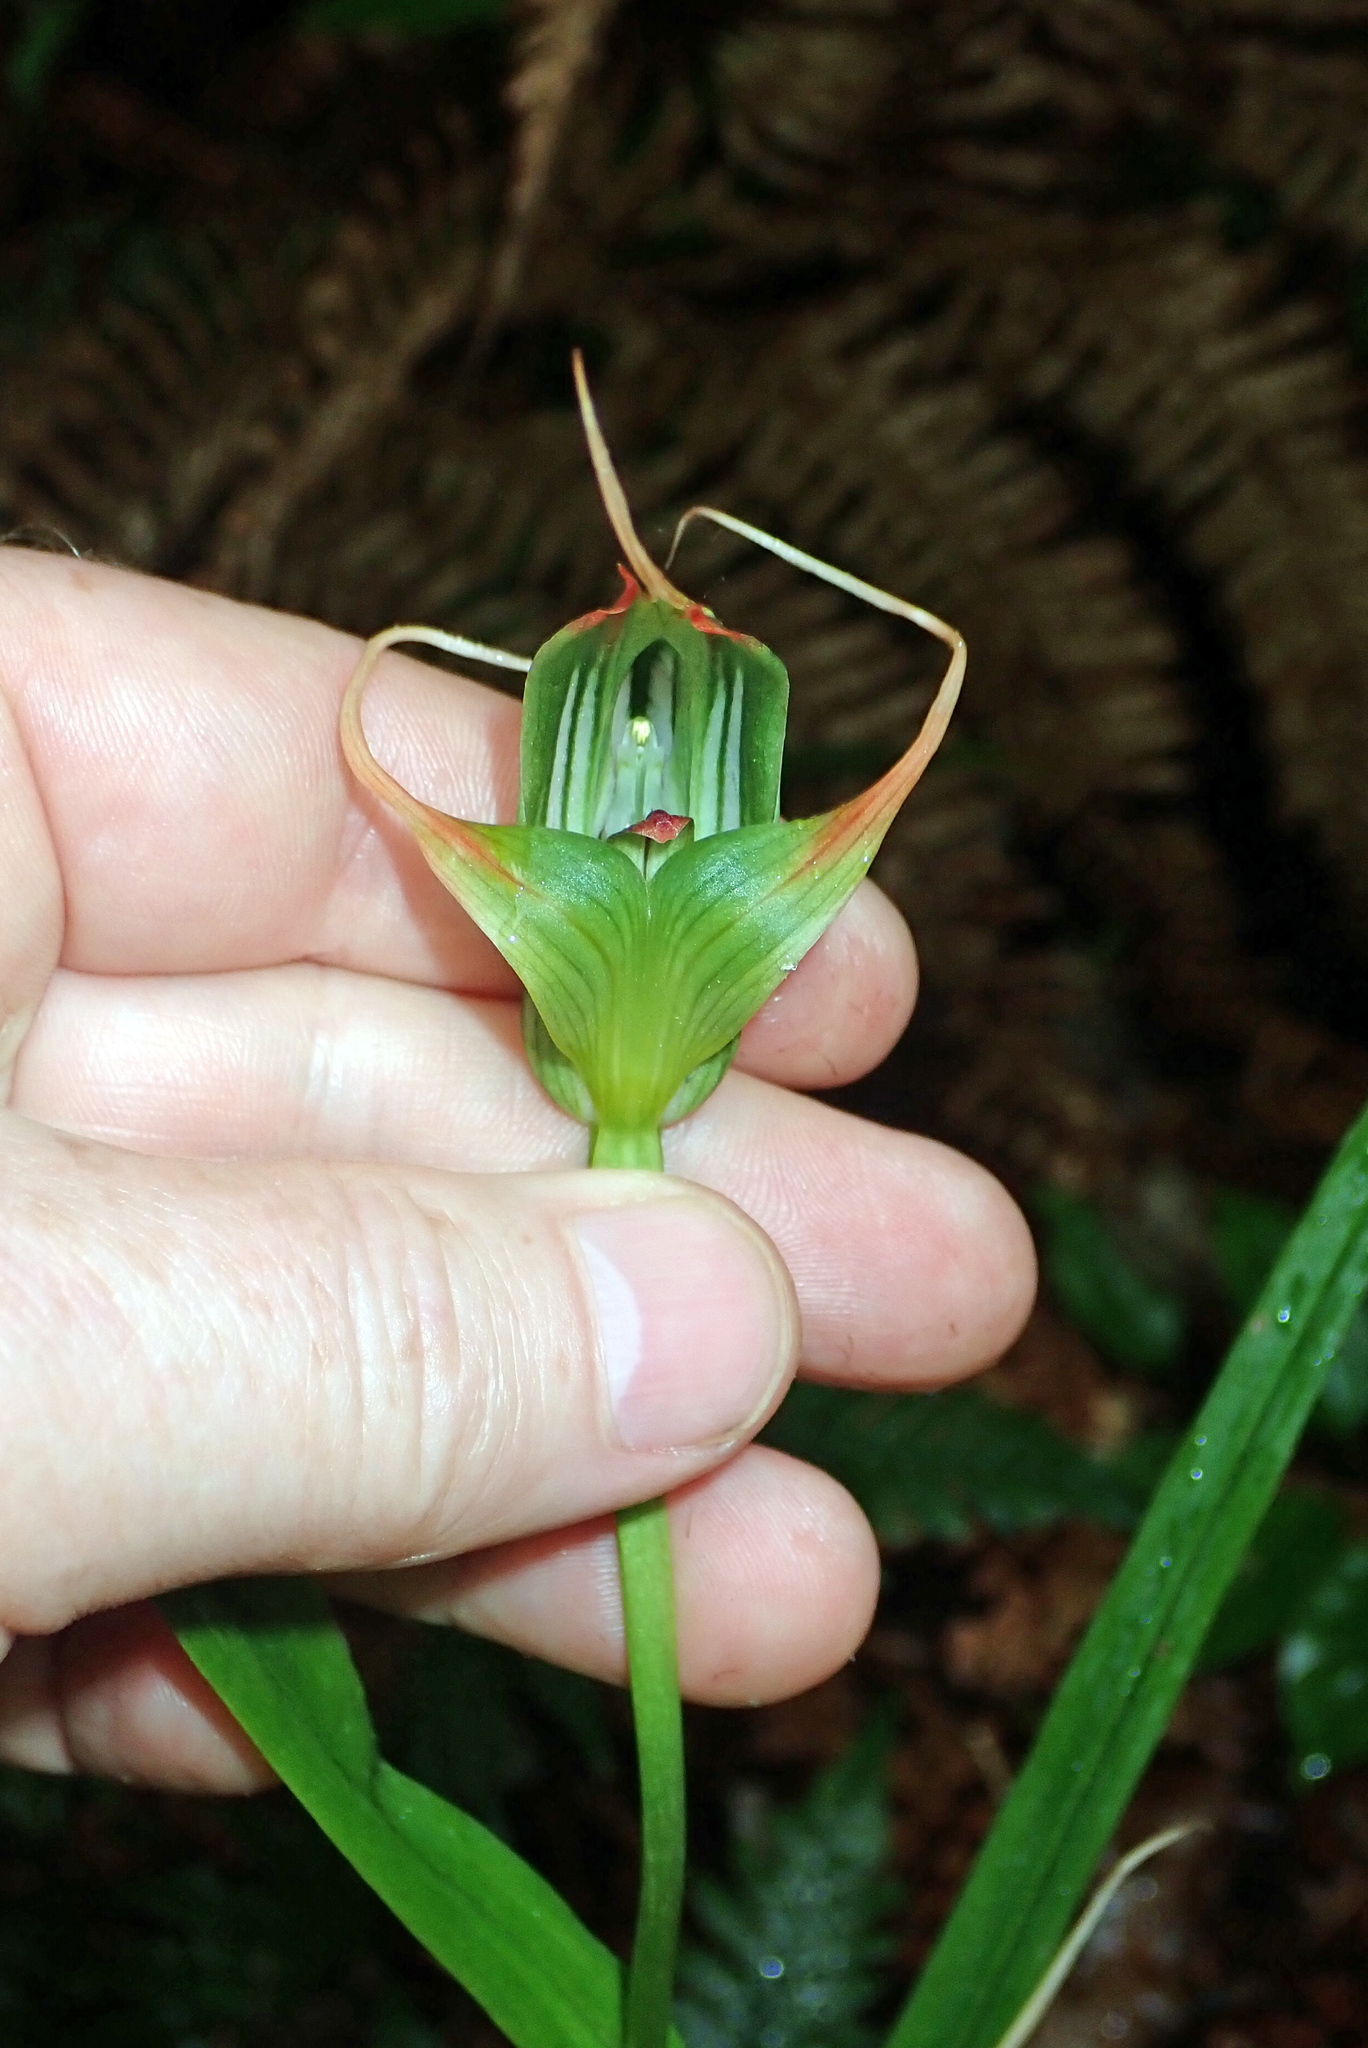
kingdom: Plantae
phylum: Tracheophyta
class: Liliopsida
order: Asparagales
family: Orchidaceae
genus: Pterostylis
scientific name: Pterostylis banksii
